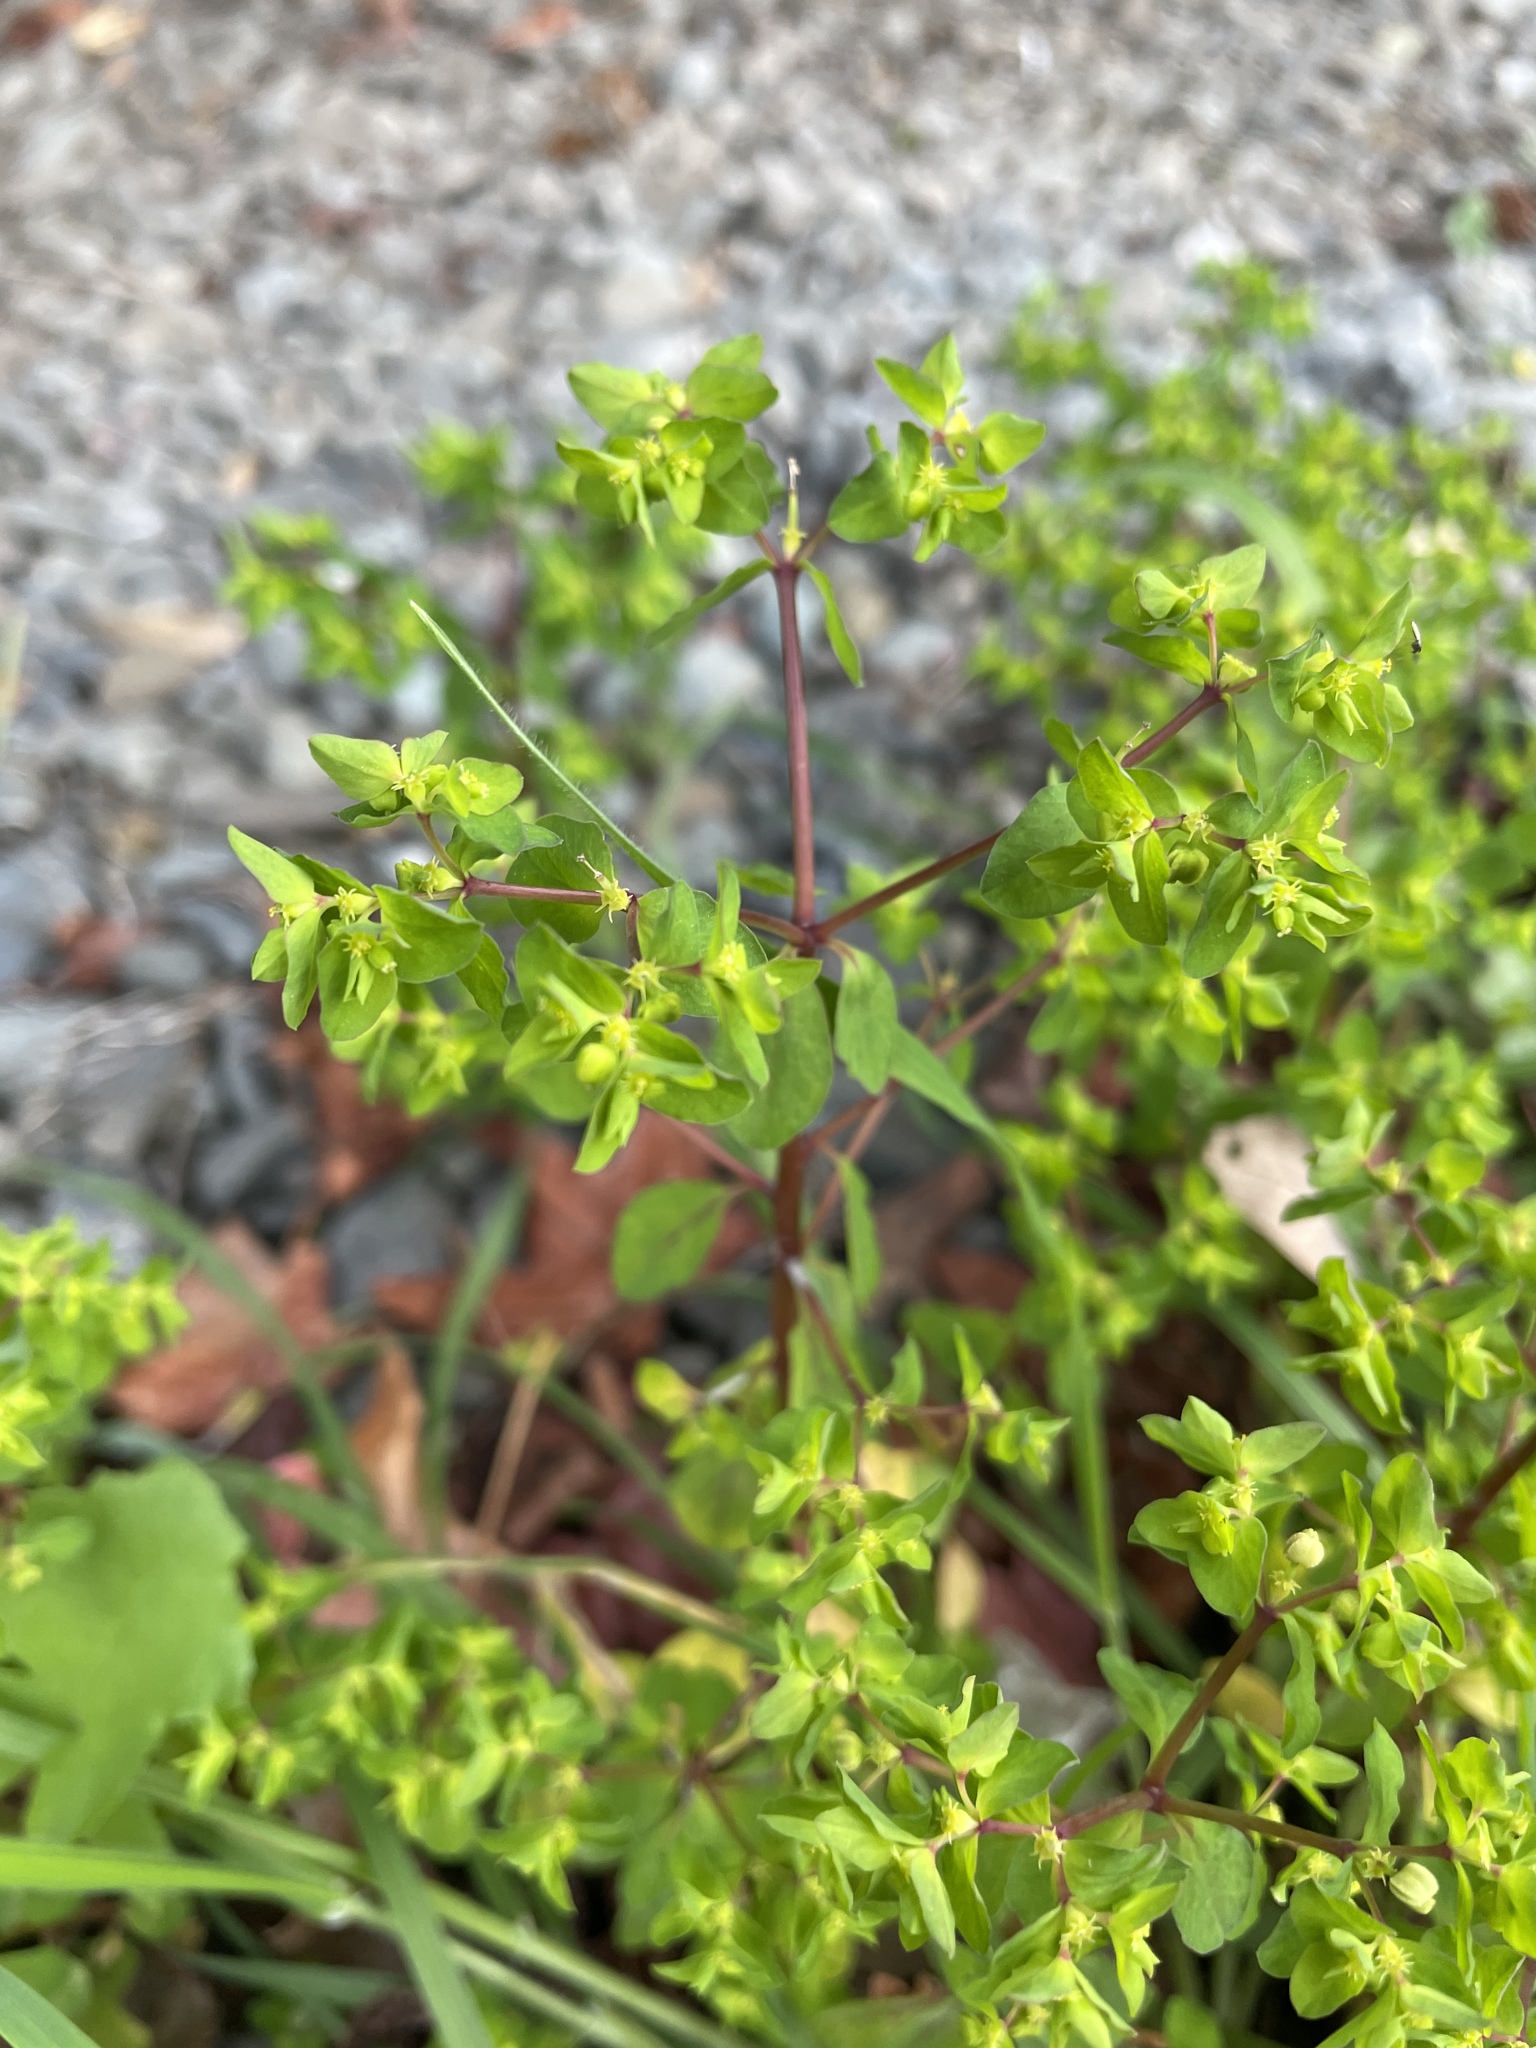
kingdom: Plantae
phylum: Tracheophyta
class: Magnoliopsida
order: Malpighiales
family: Euphorbiaceae
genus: Euphorbia
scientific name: Euphorbia peplus
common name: Petty spurge
